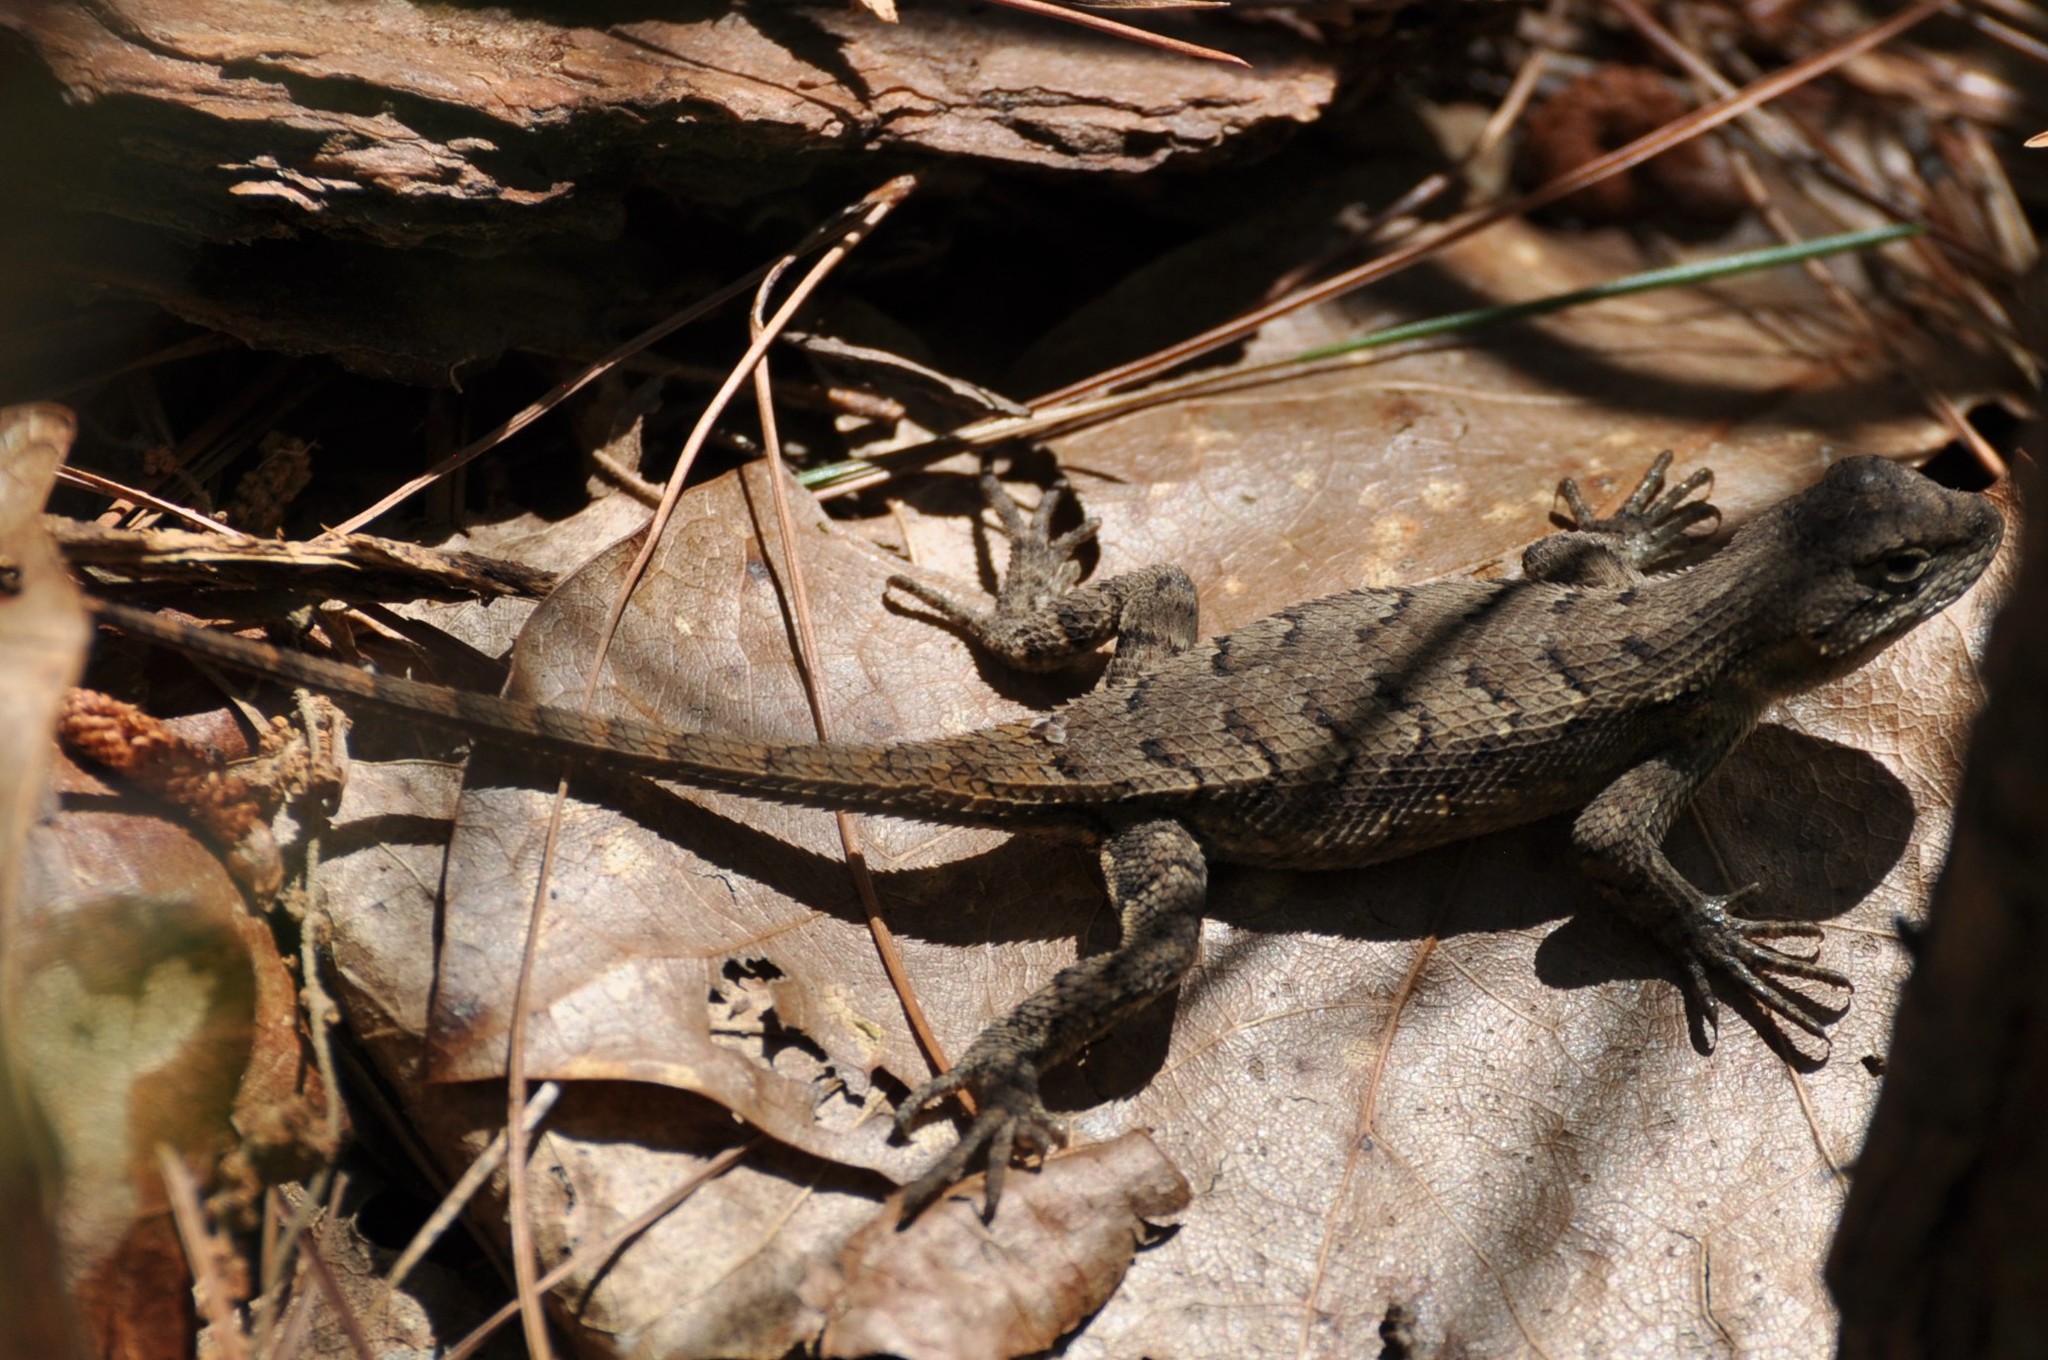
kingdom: Animalia
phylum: Chordata
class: Squamata
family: Phrynosomatidae
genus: Sceloporus
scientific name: Sceloporus consobrinus
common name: Southern prairie lizard
